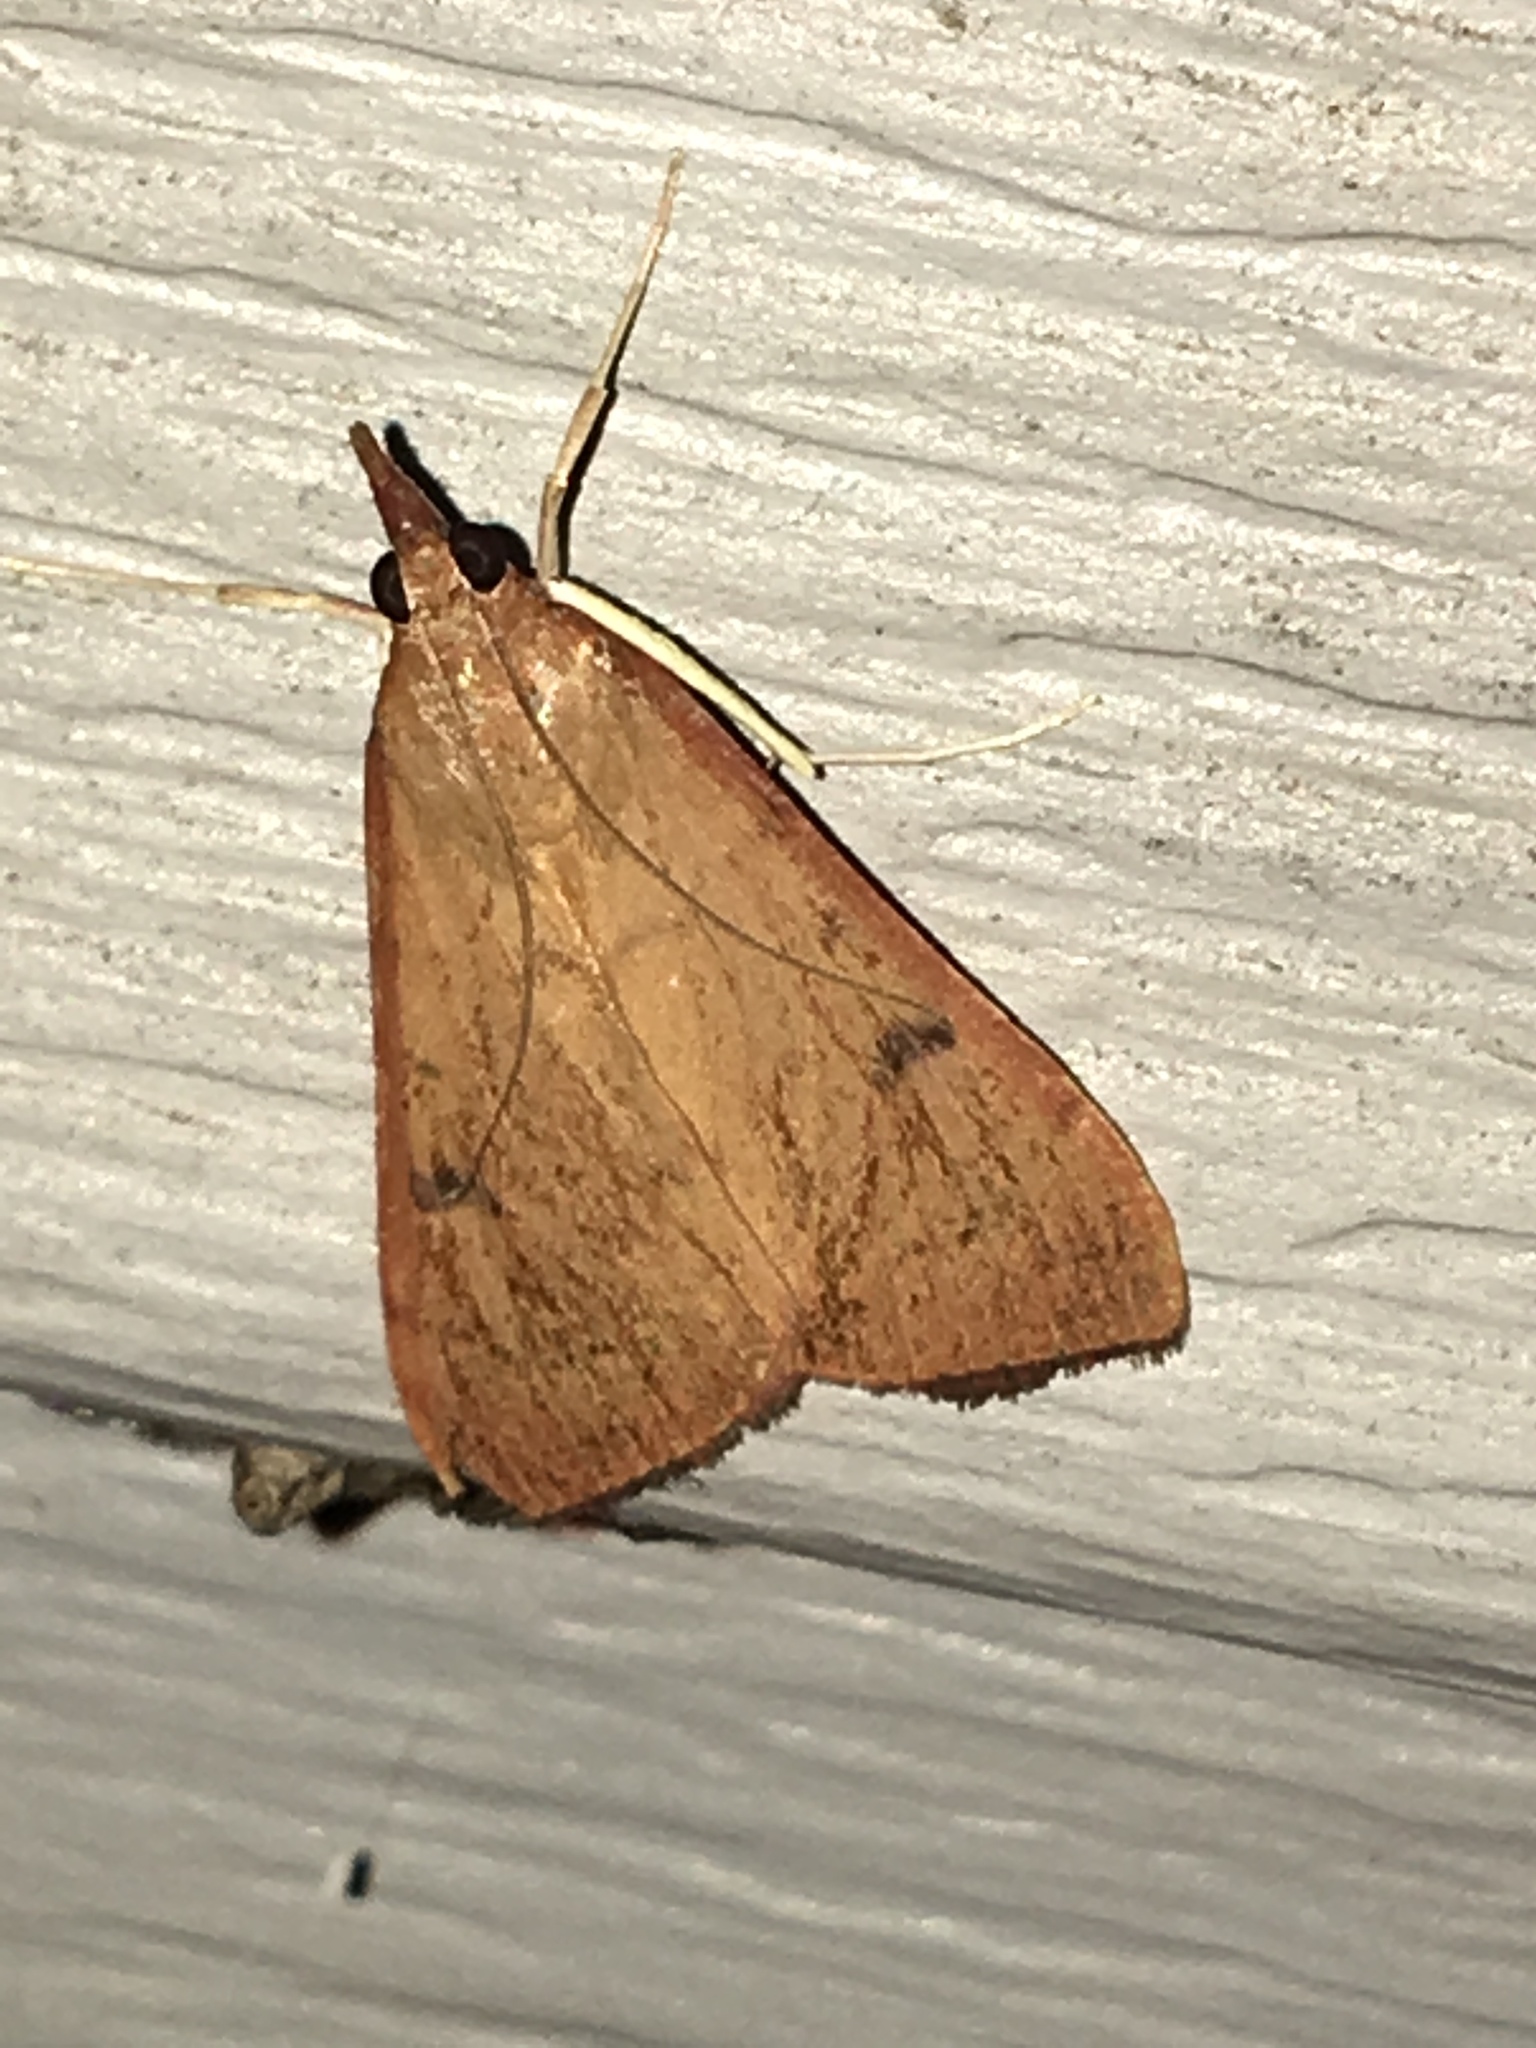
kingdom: Animalia
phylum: Arthropoda
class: Insecta
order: Lepidoptera
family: Crambidae
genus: Uresiphita
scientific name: Uresiphita reversalis
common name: Genista broom moth
